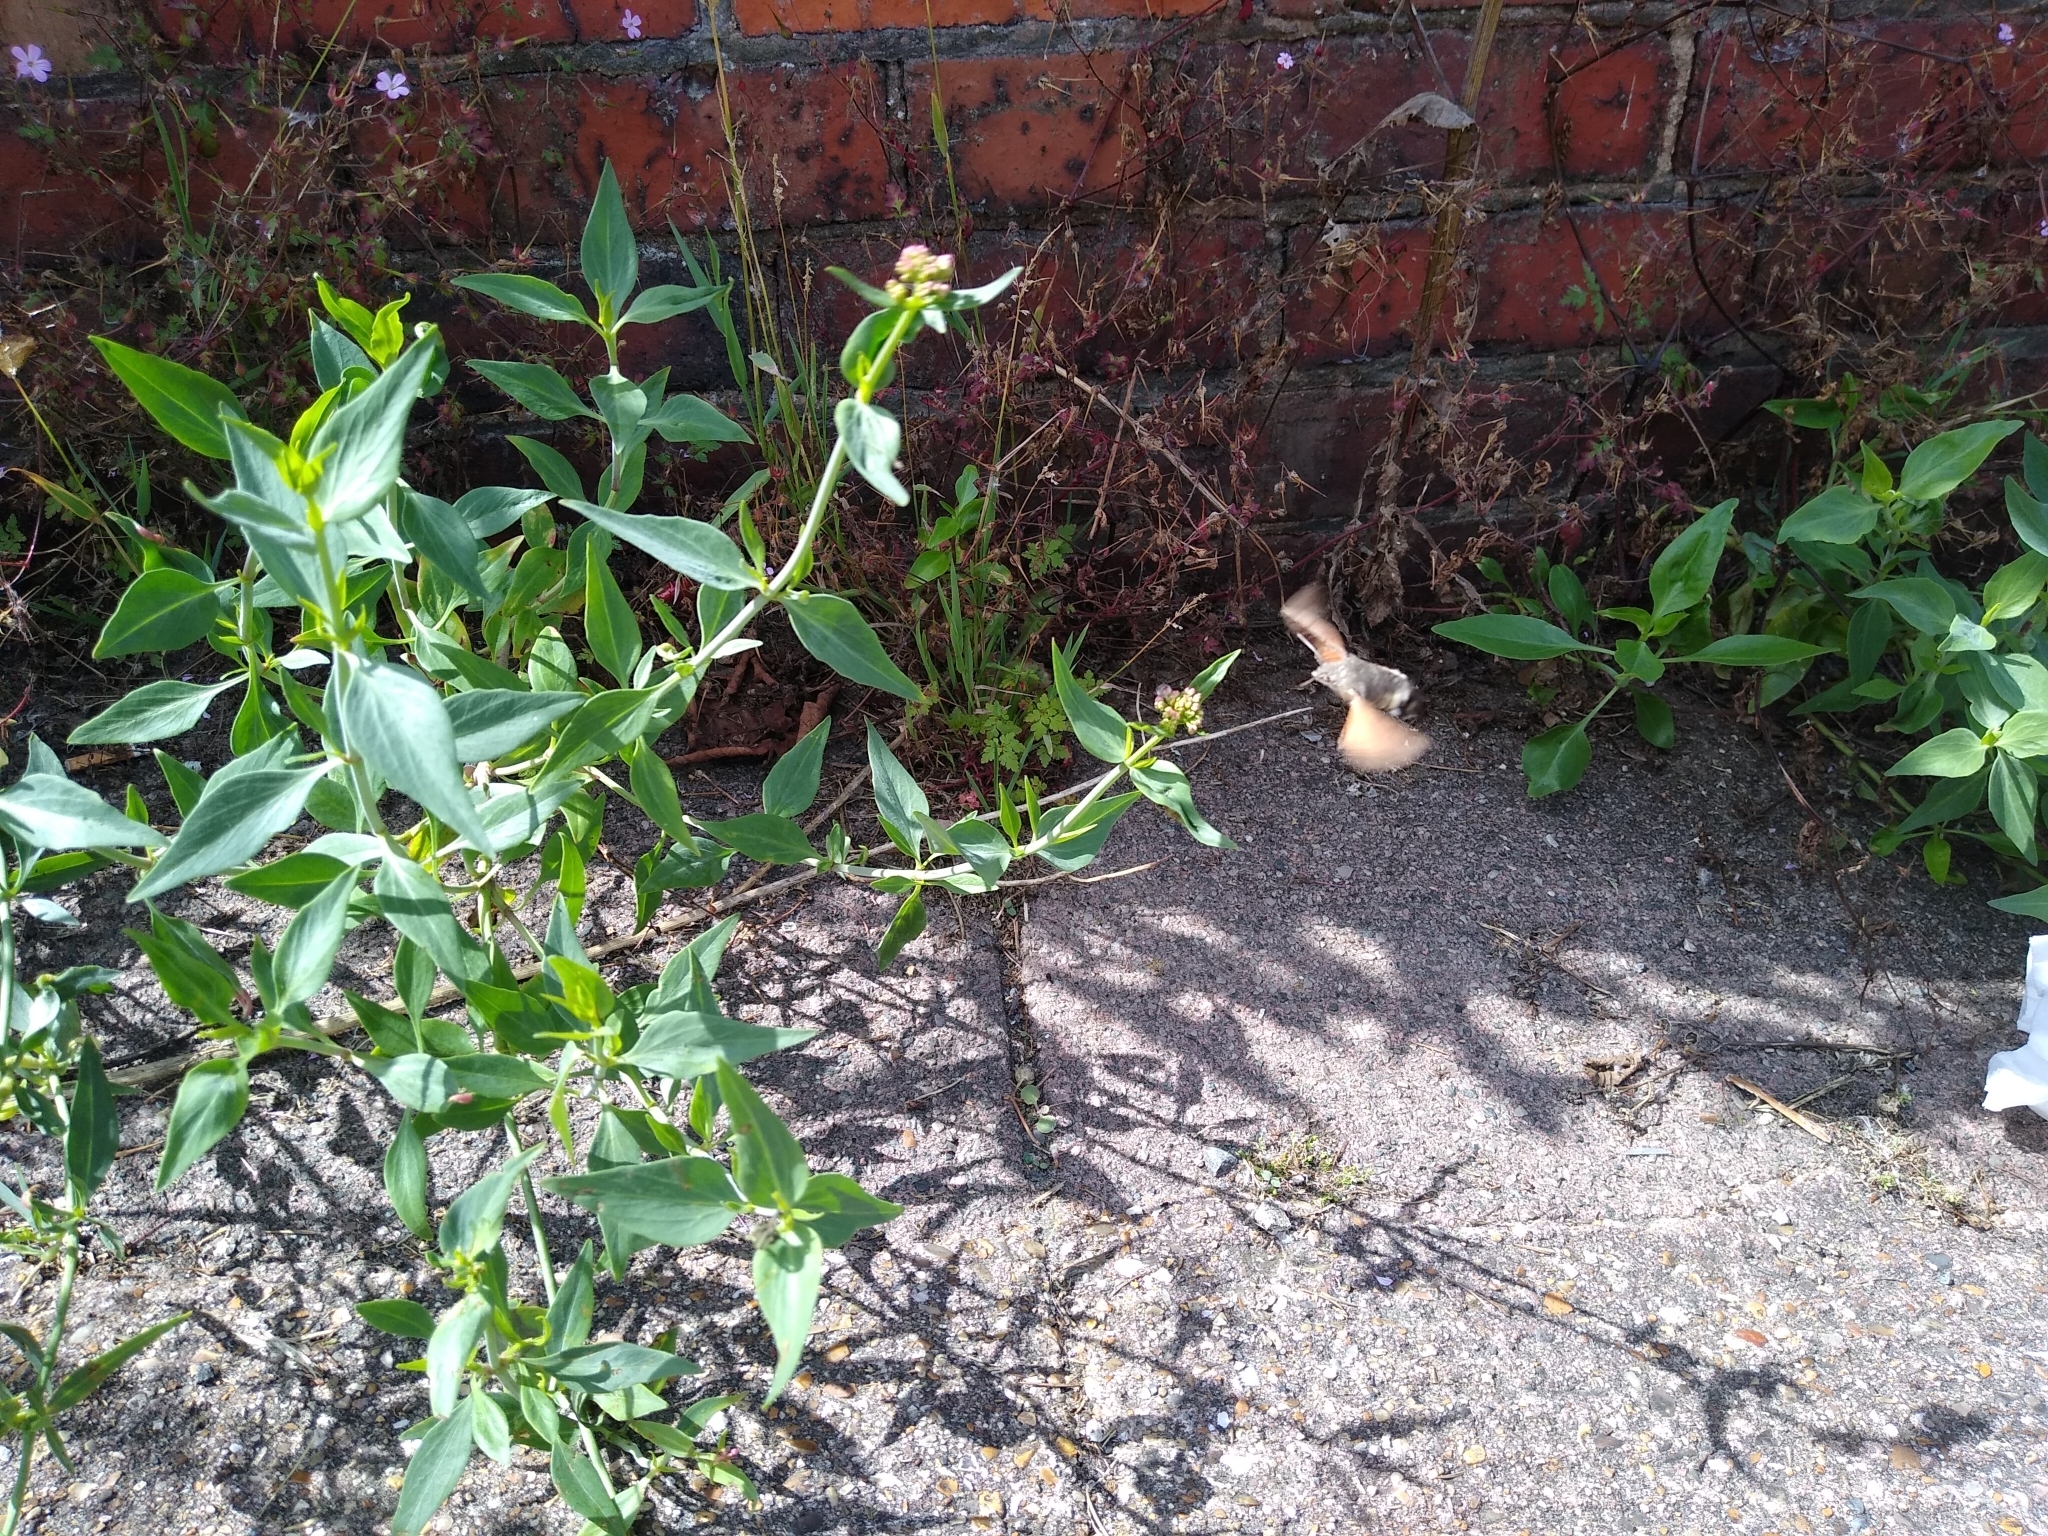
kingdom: Animalia
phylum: Arthropoda
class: Insecta
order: Lepidoptera
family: Sphingidae
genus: Macroglossum
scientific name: Macroglossum stellatarum
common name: Humming-bird hawk-moth
